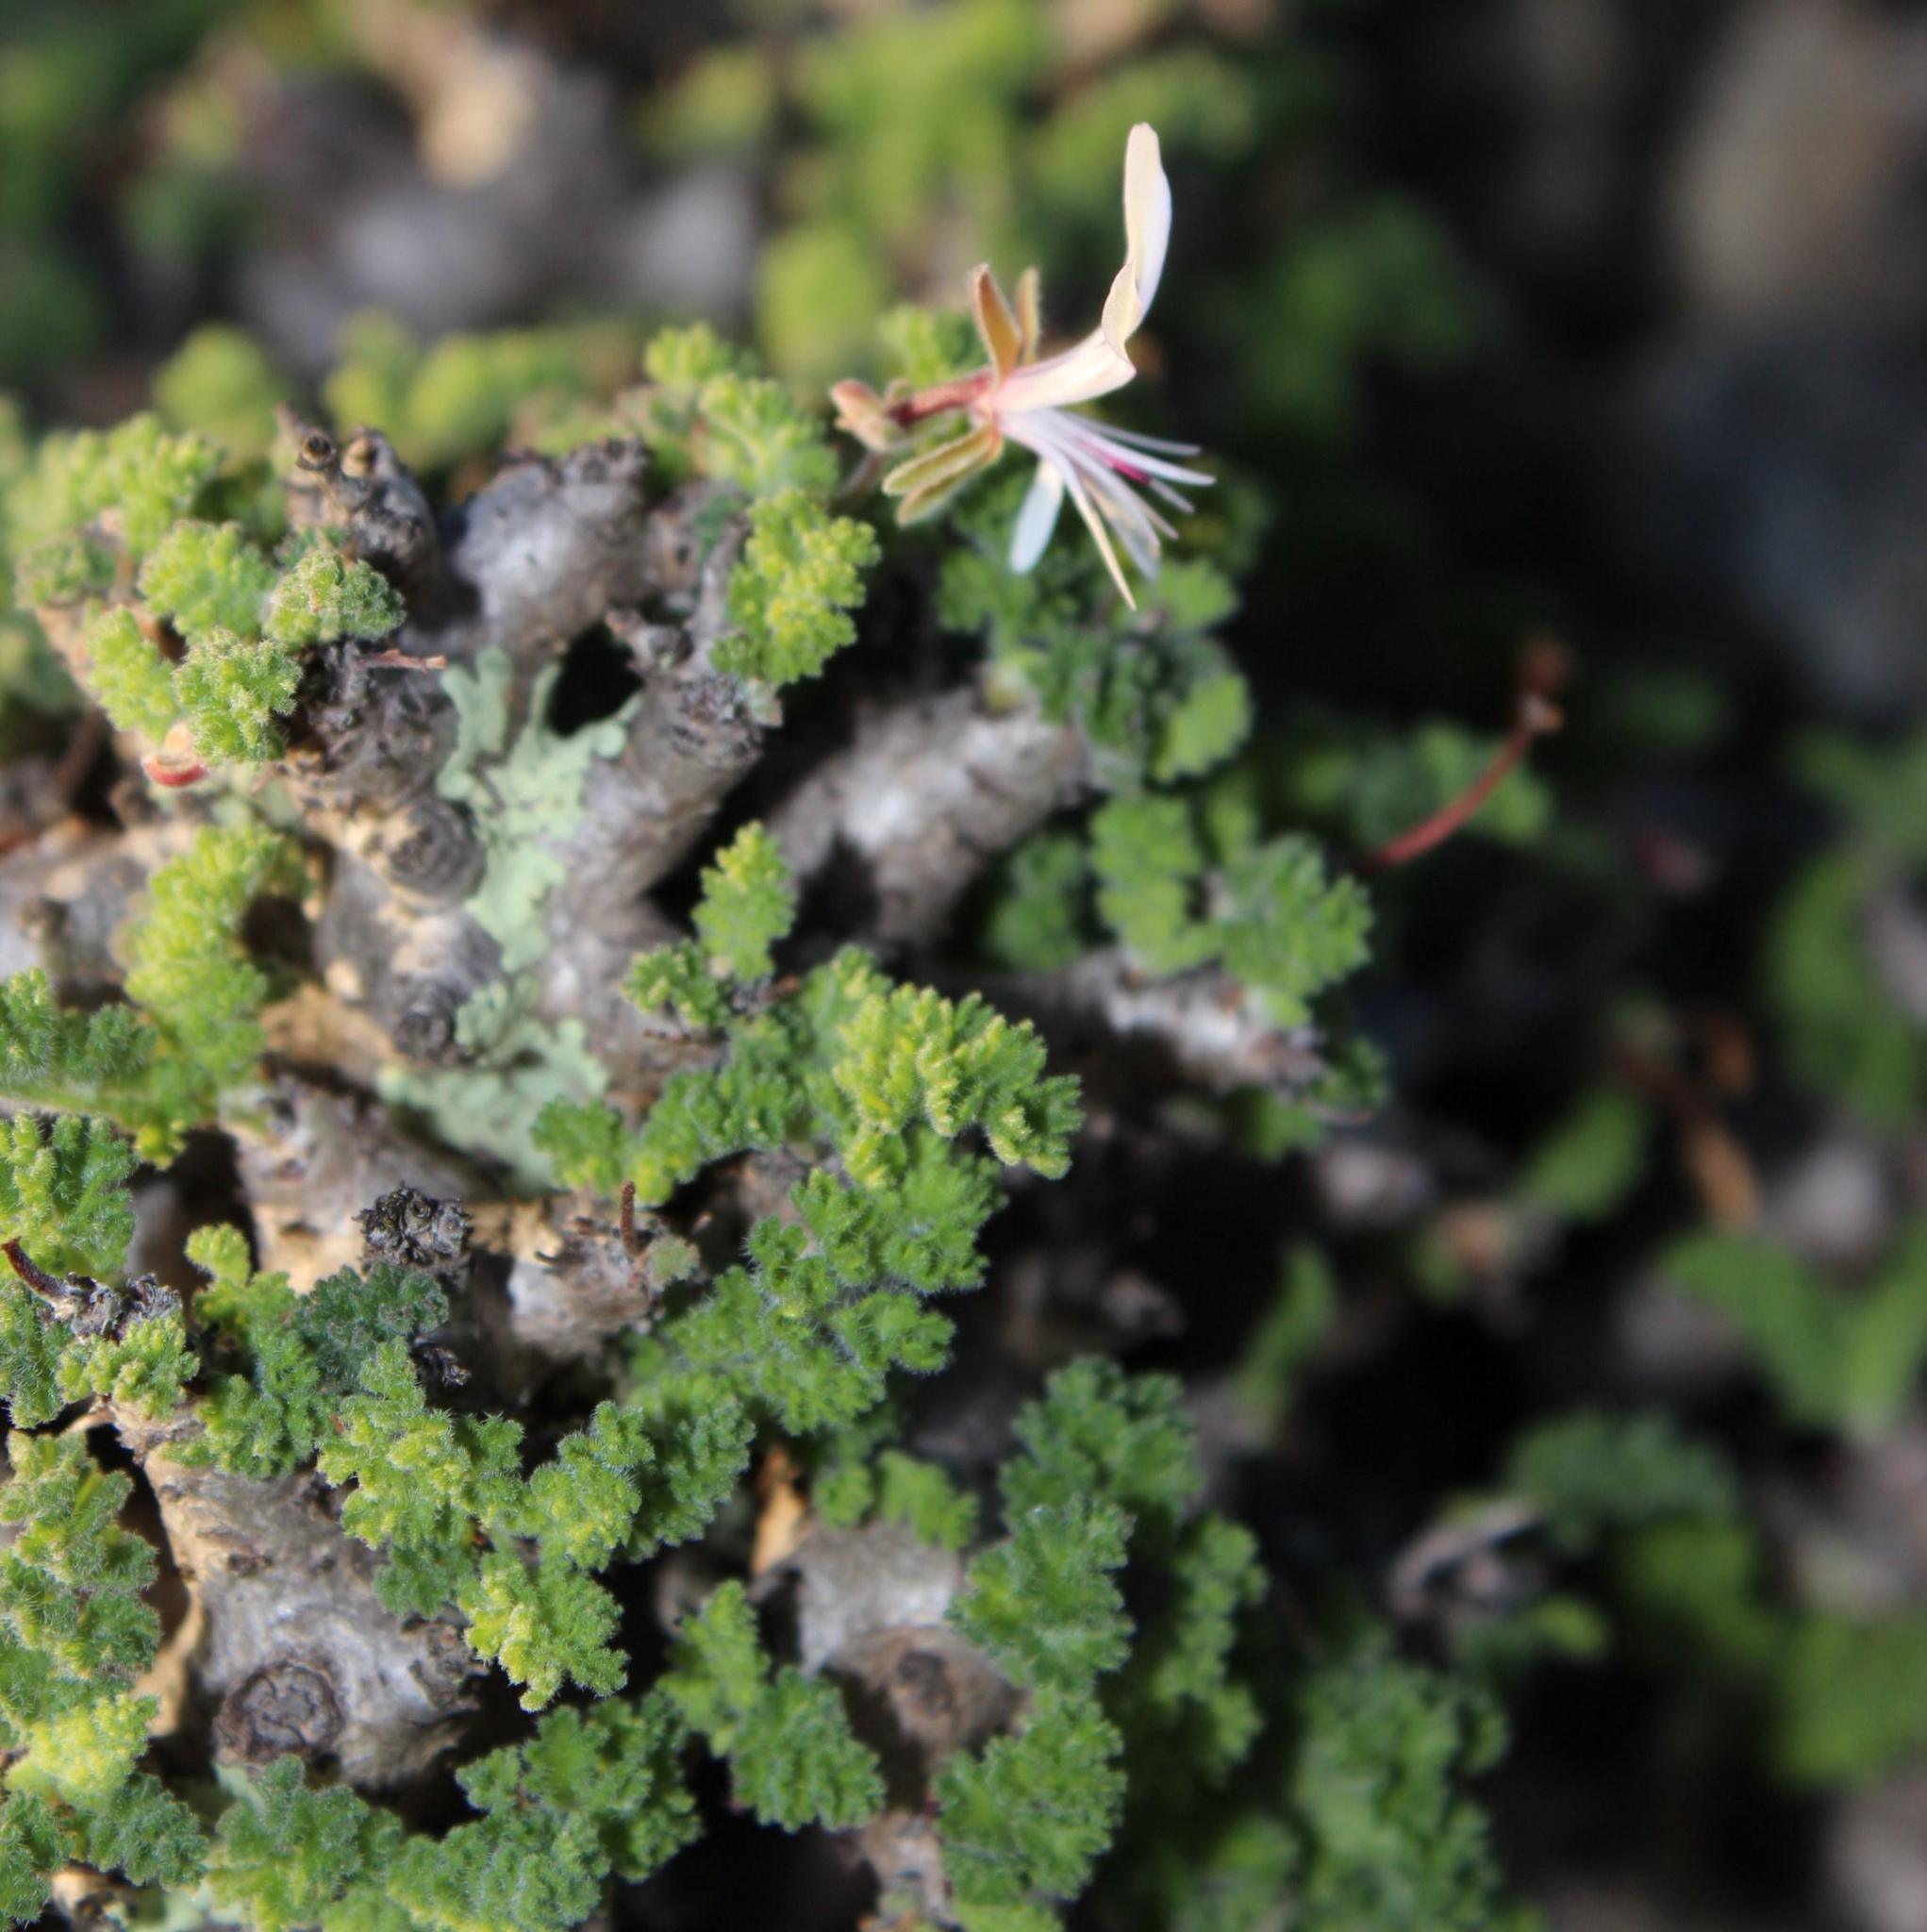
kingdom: Plantae
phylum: Tracheophyta
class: Magnoliopsida
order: Geraniales
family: Geraniaceae
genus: Pelargonium
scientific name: Pelargonium alternans
